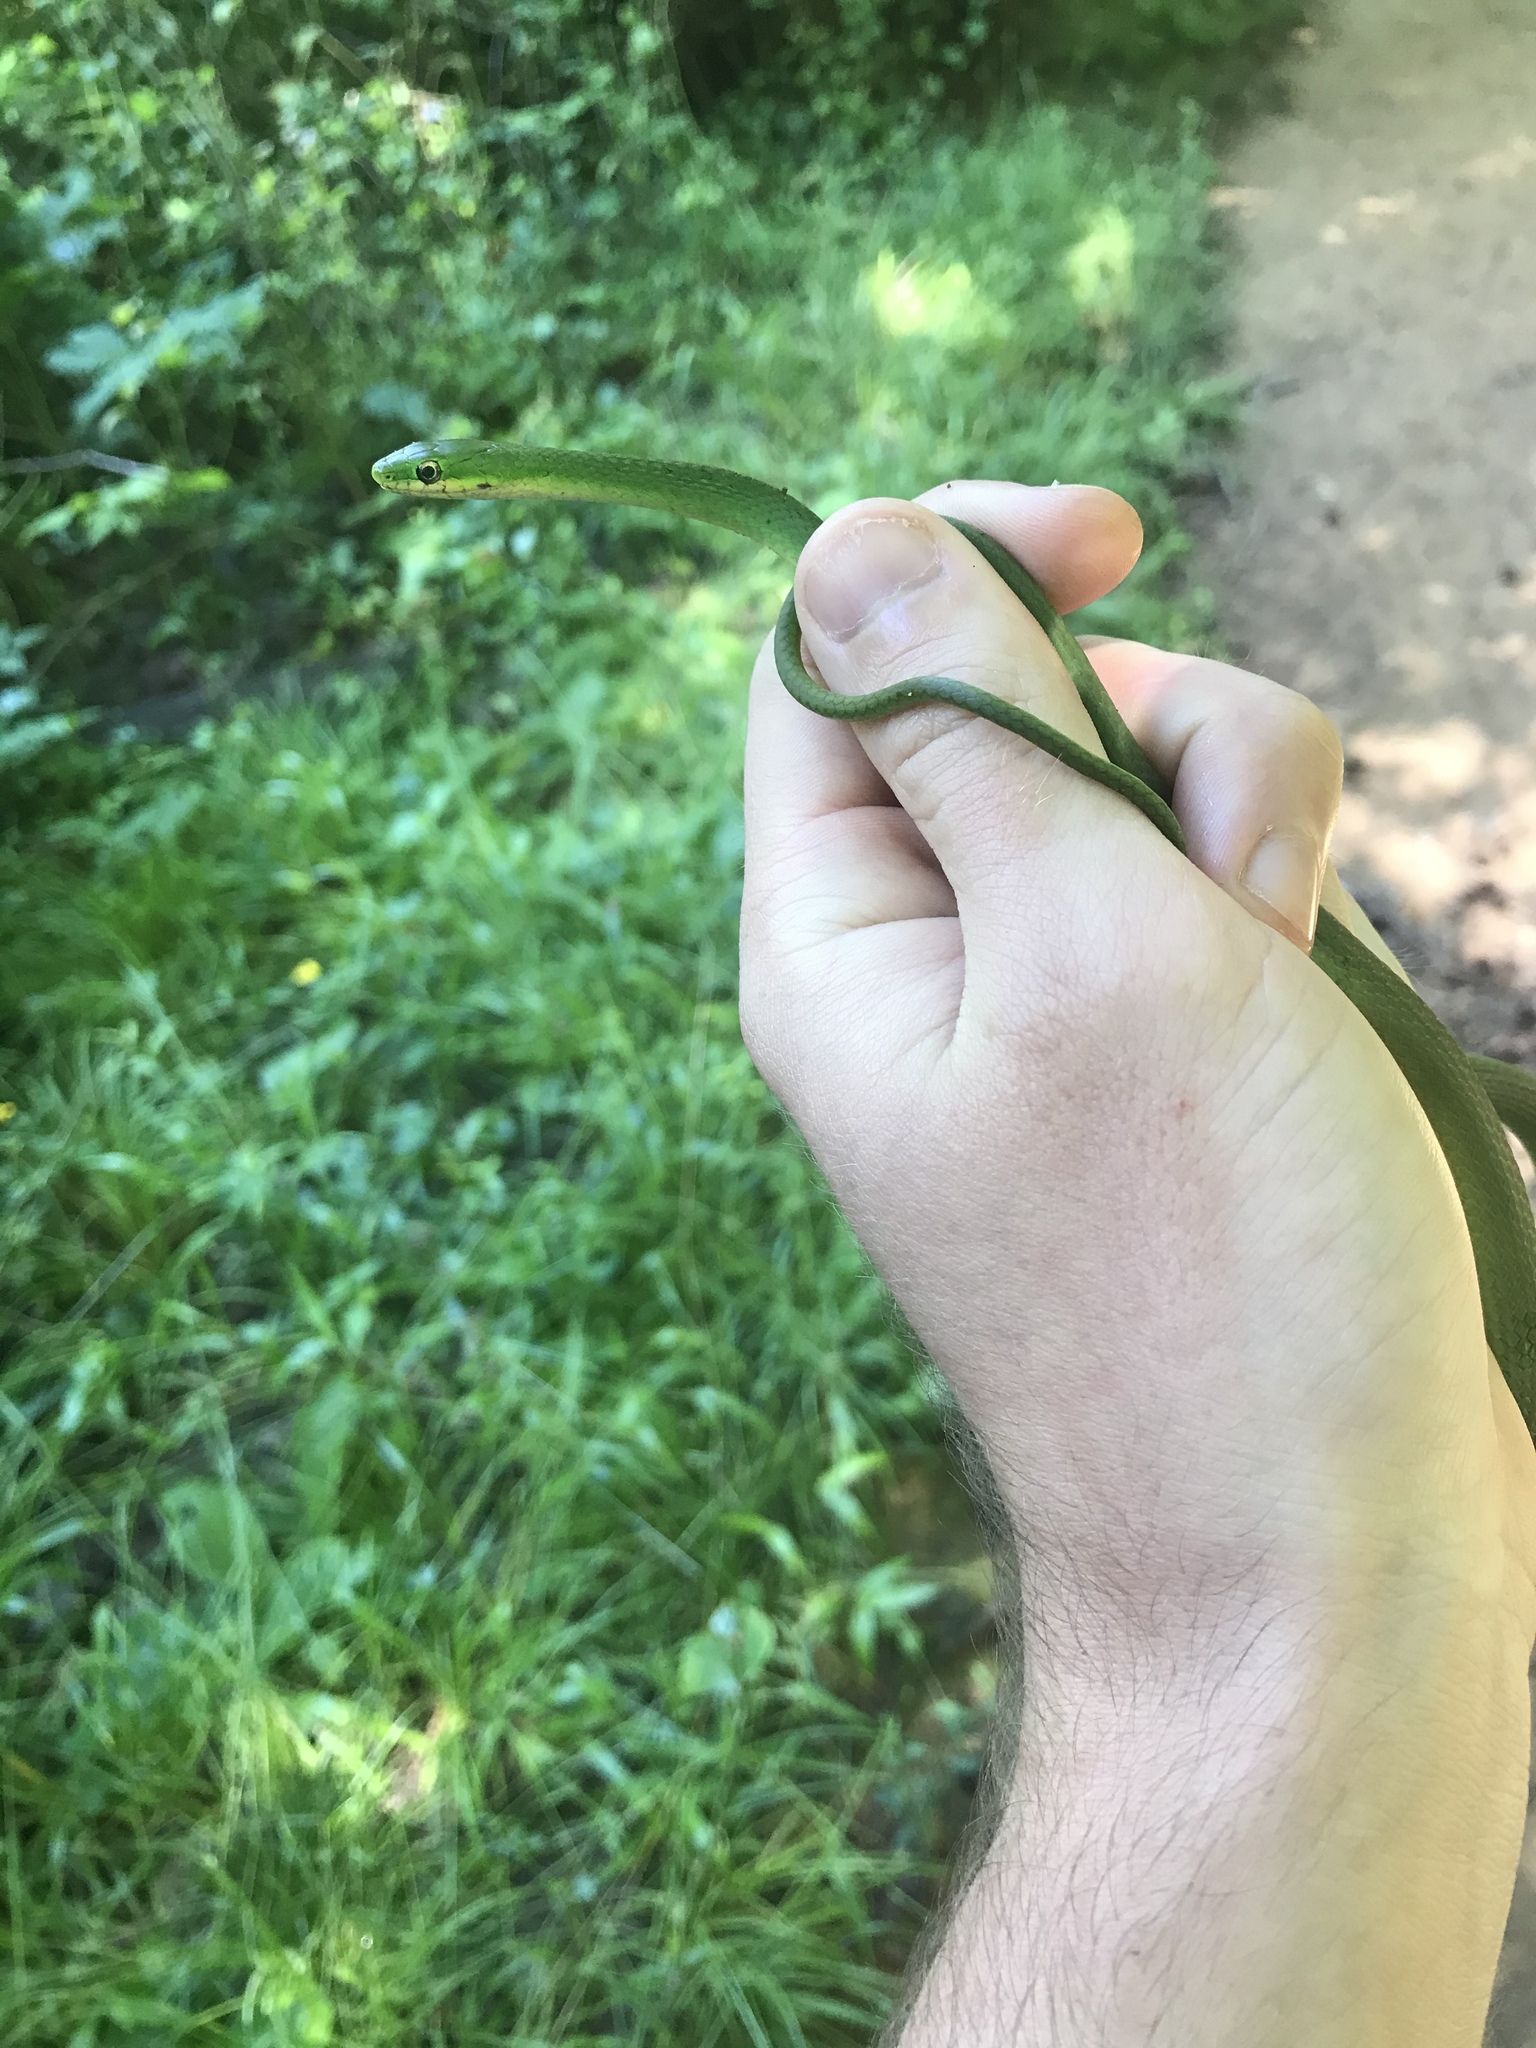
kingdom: Animalia
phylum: Chordata
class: Squamata
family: Colubridae
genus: Opheodrys
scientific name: Opheodrys aestivus
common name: Rough greensnake
